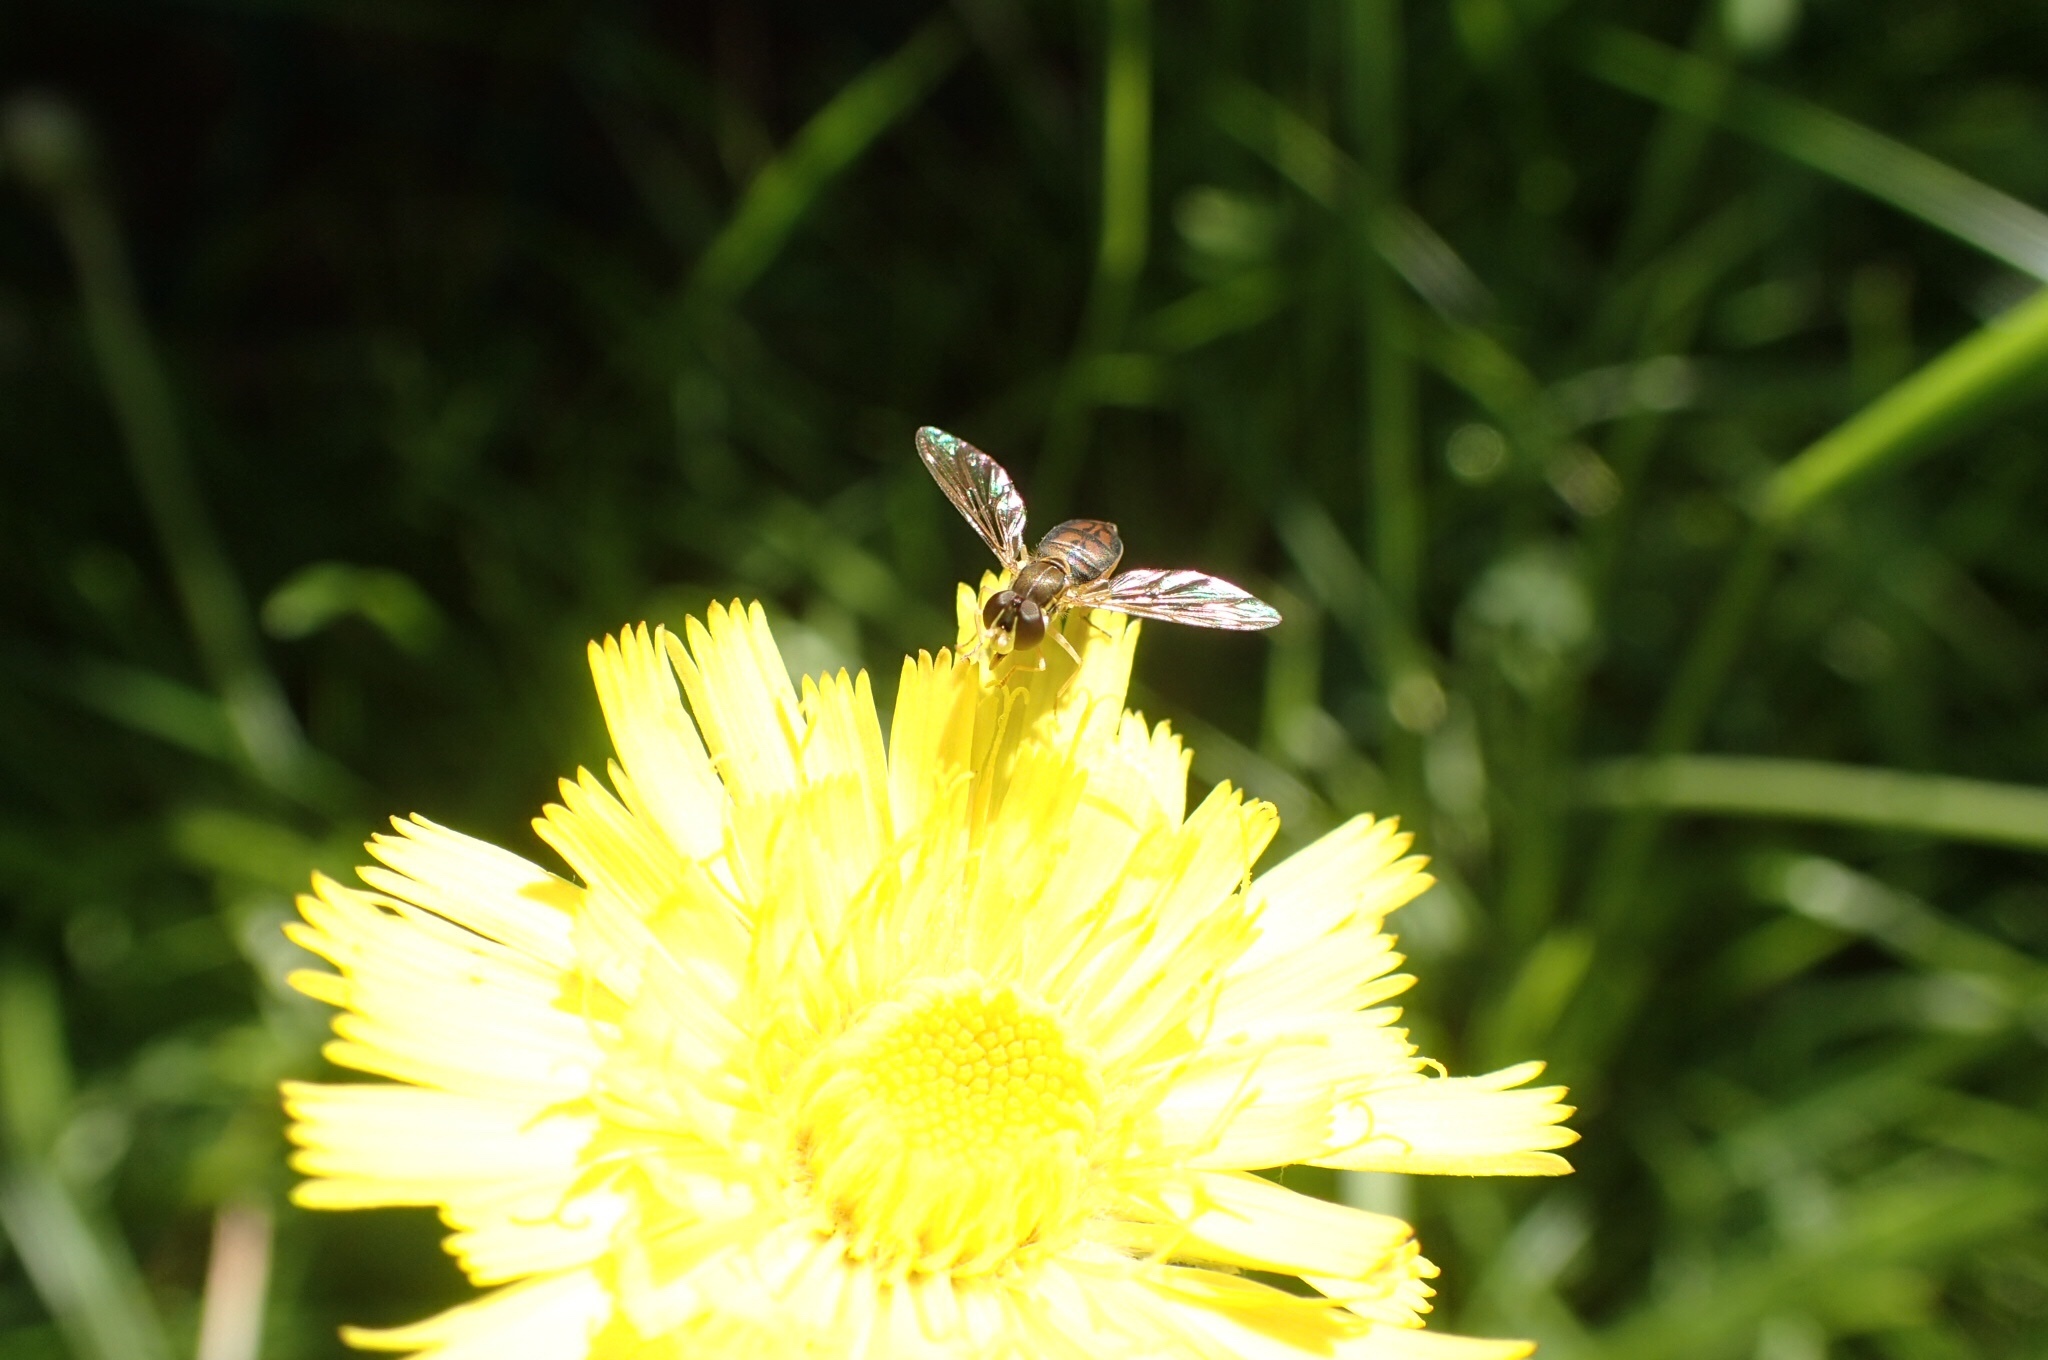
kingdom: Animalia
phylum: Arthropoda
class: Insecta
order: Diptera
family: Syrphidae
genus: Toxomerus
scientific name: Toxomerus marginatus
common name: Syrphid fly
